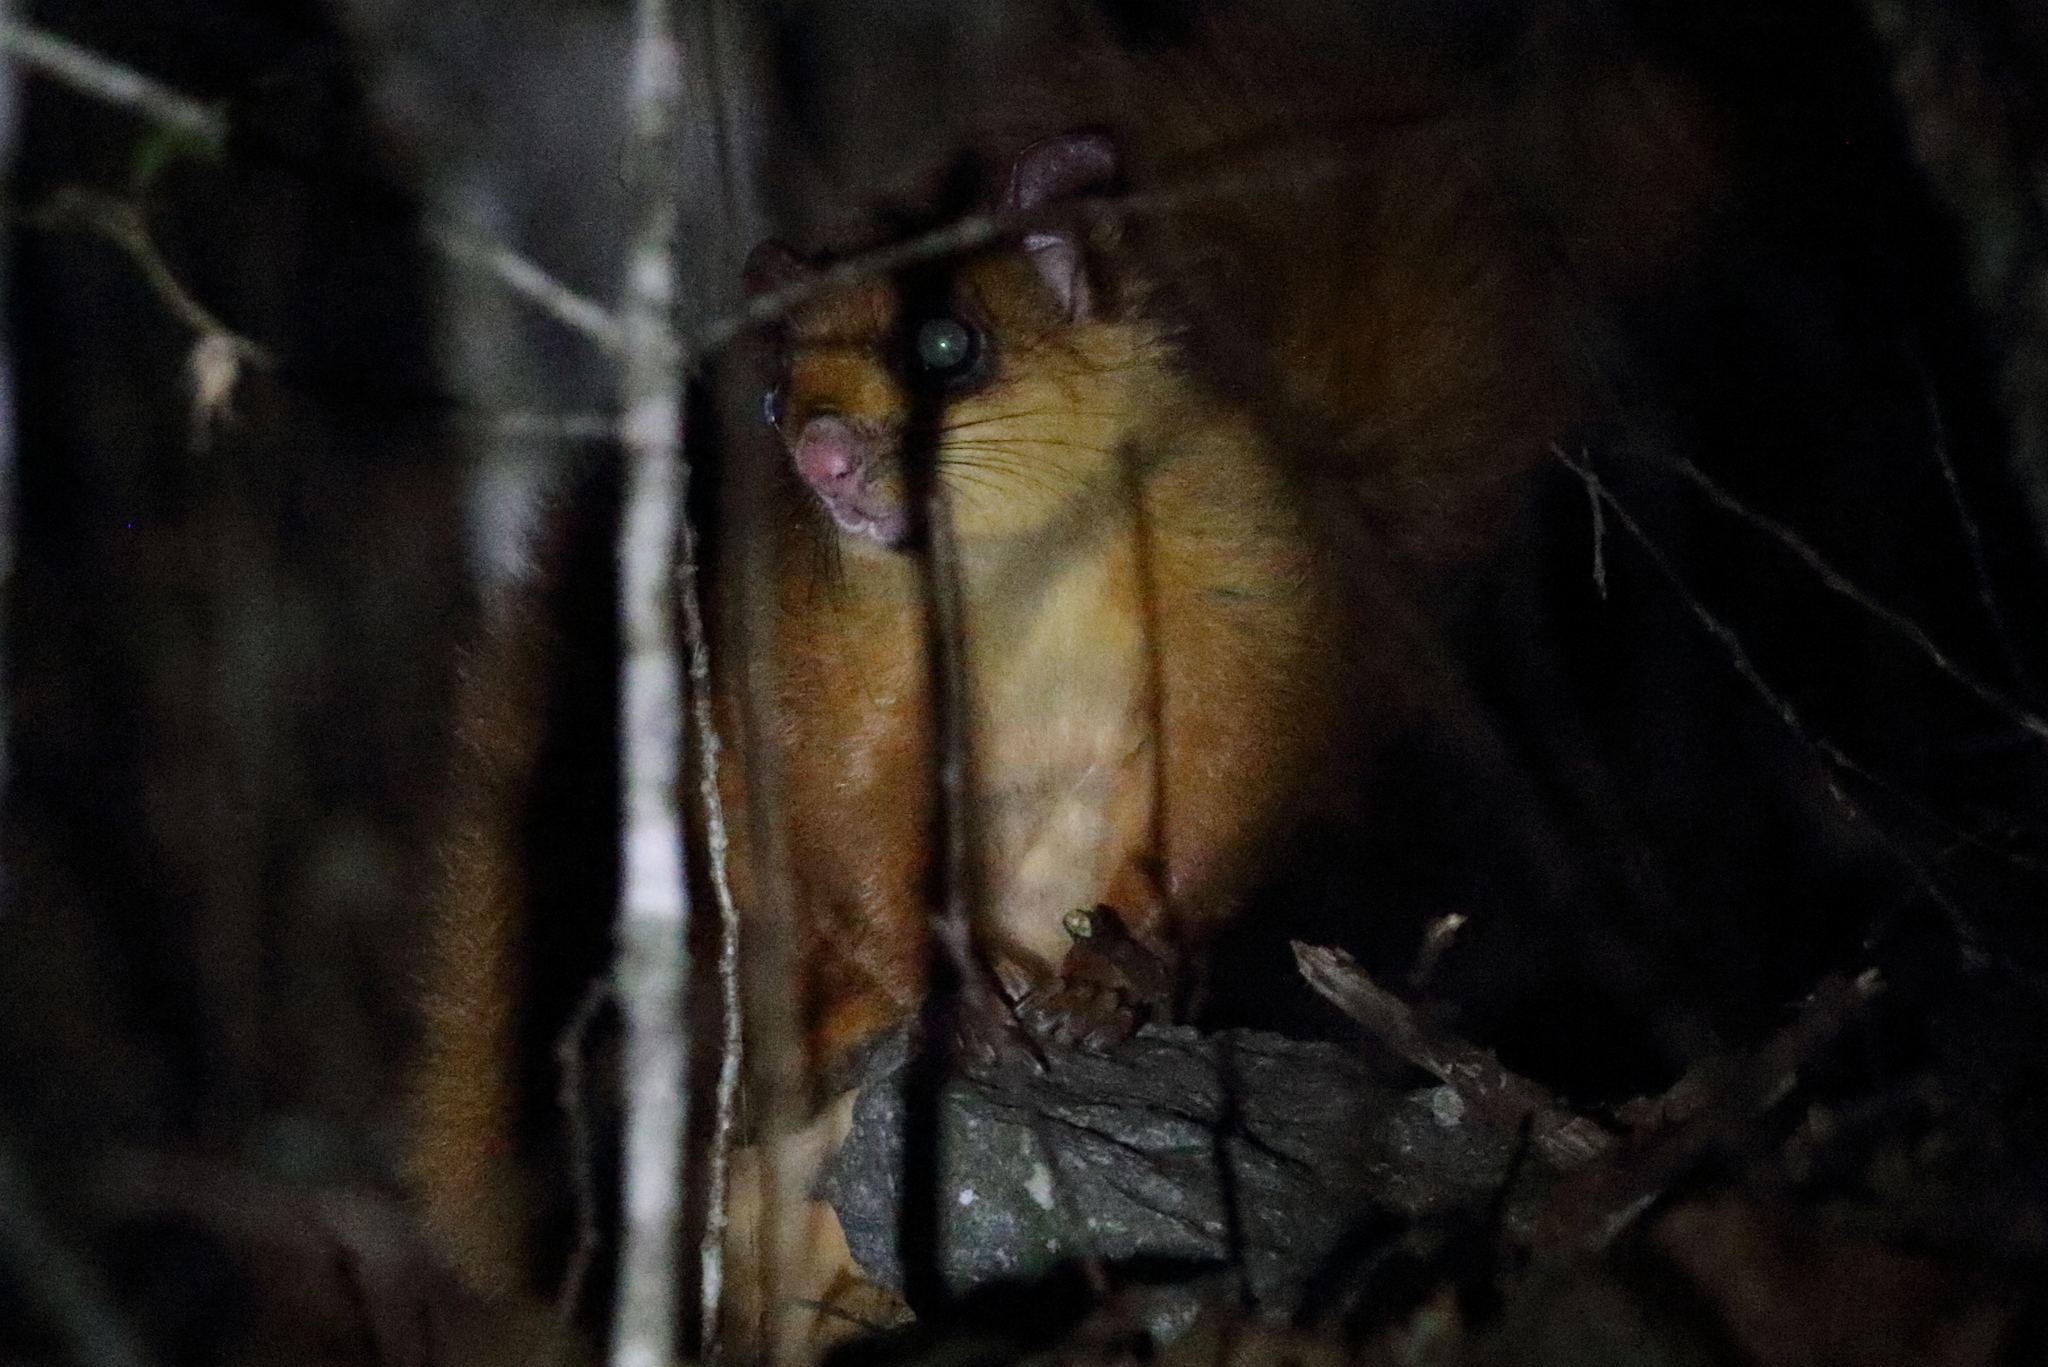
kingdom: Animalia
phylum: Chordata
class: Mammalia
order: Rodentia
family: Sciuridae
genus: Petaurista
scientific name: Petaurista petaurista
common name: Red giant flying squirrel
